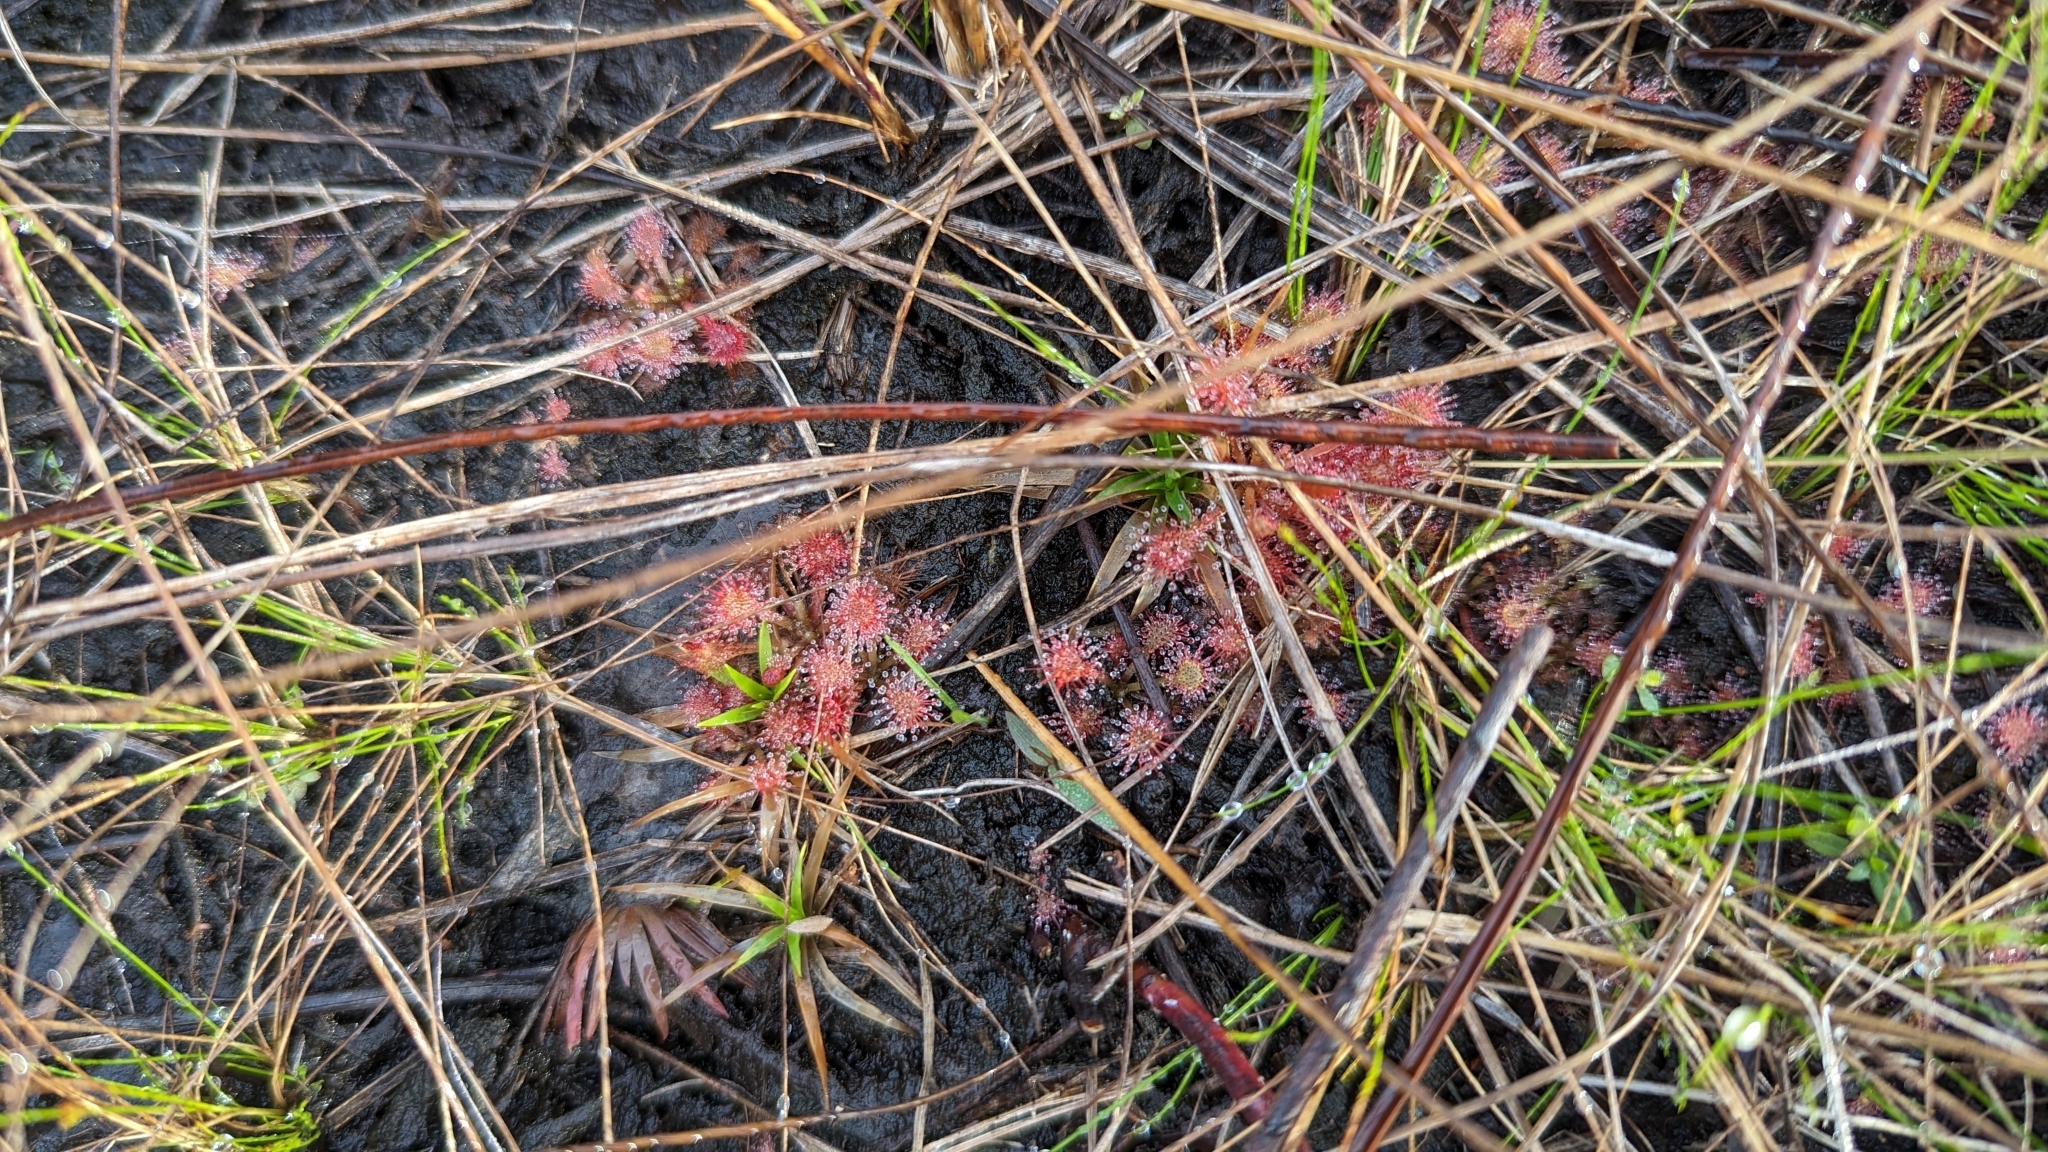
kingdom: Plantae
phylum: Tracheophyta
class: Magnoliopsida
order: Caryophyllales
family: Droseraceae
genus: Drosera
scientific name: Drosera capillaris
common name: Pink sundew
